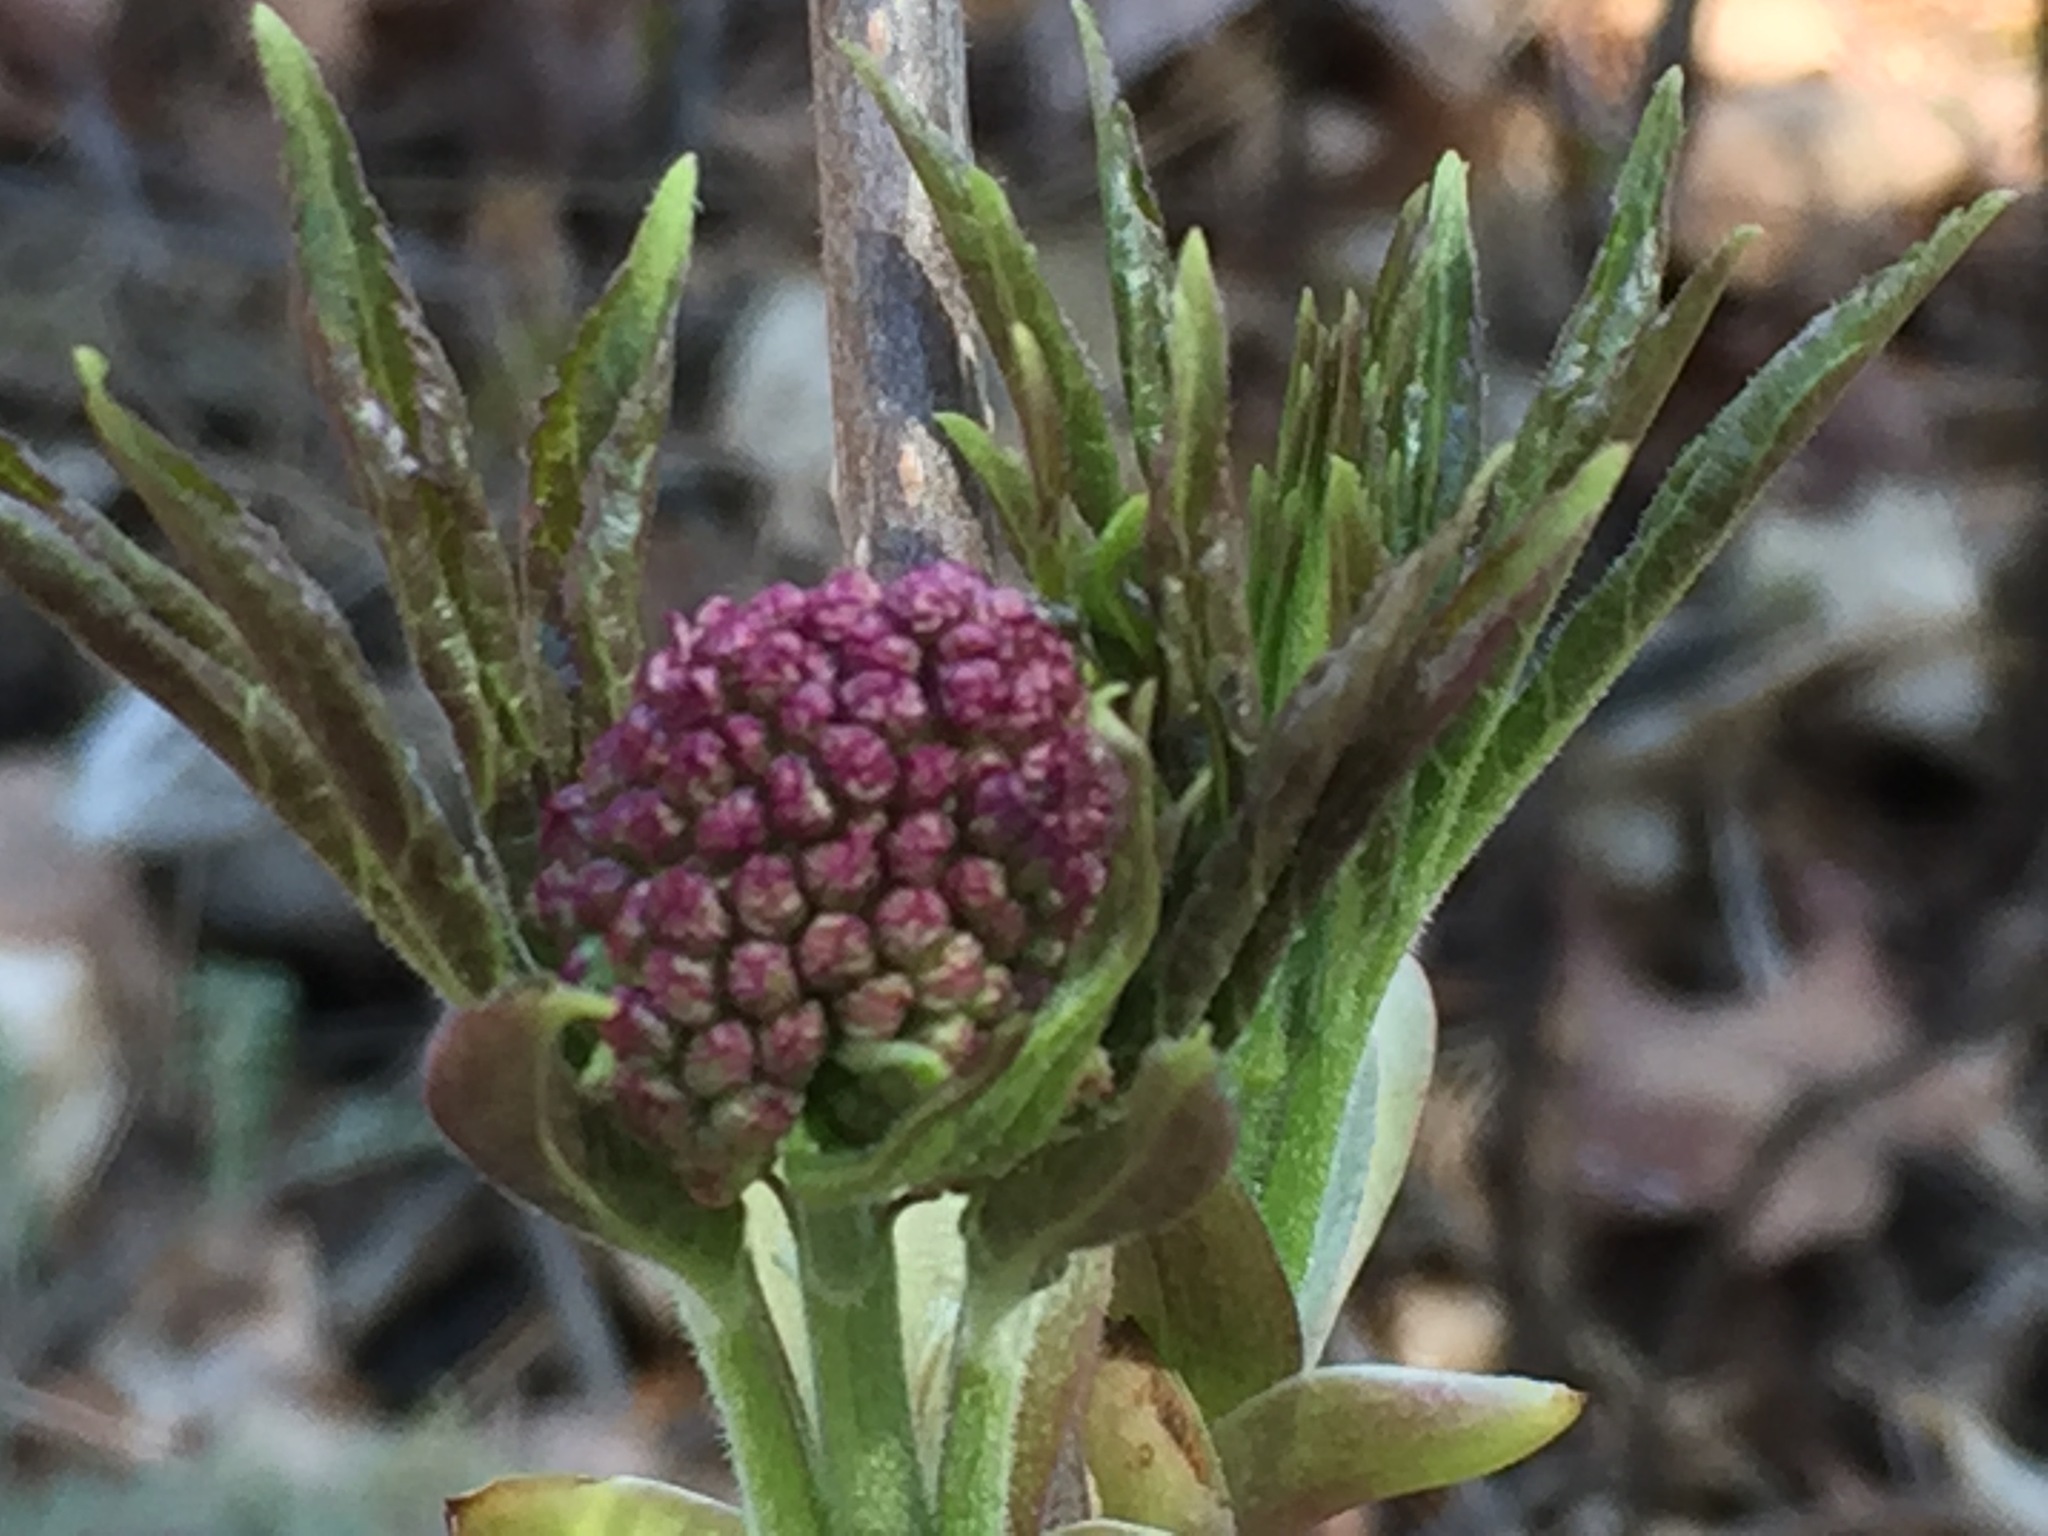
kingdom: Plantae
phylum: Tracheophyta
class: Magnoliopsida
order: Dipsacales
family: Viburnaceae
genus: Sambucus
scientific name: Sambucus racemosa
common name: Red-berried elder
